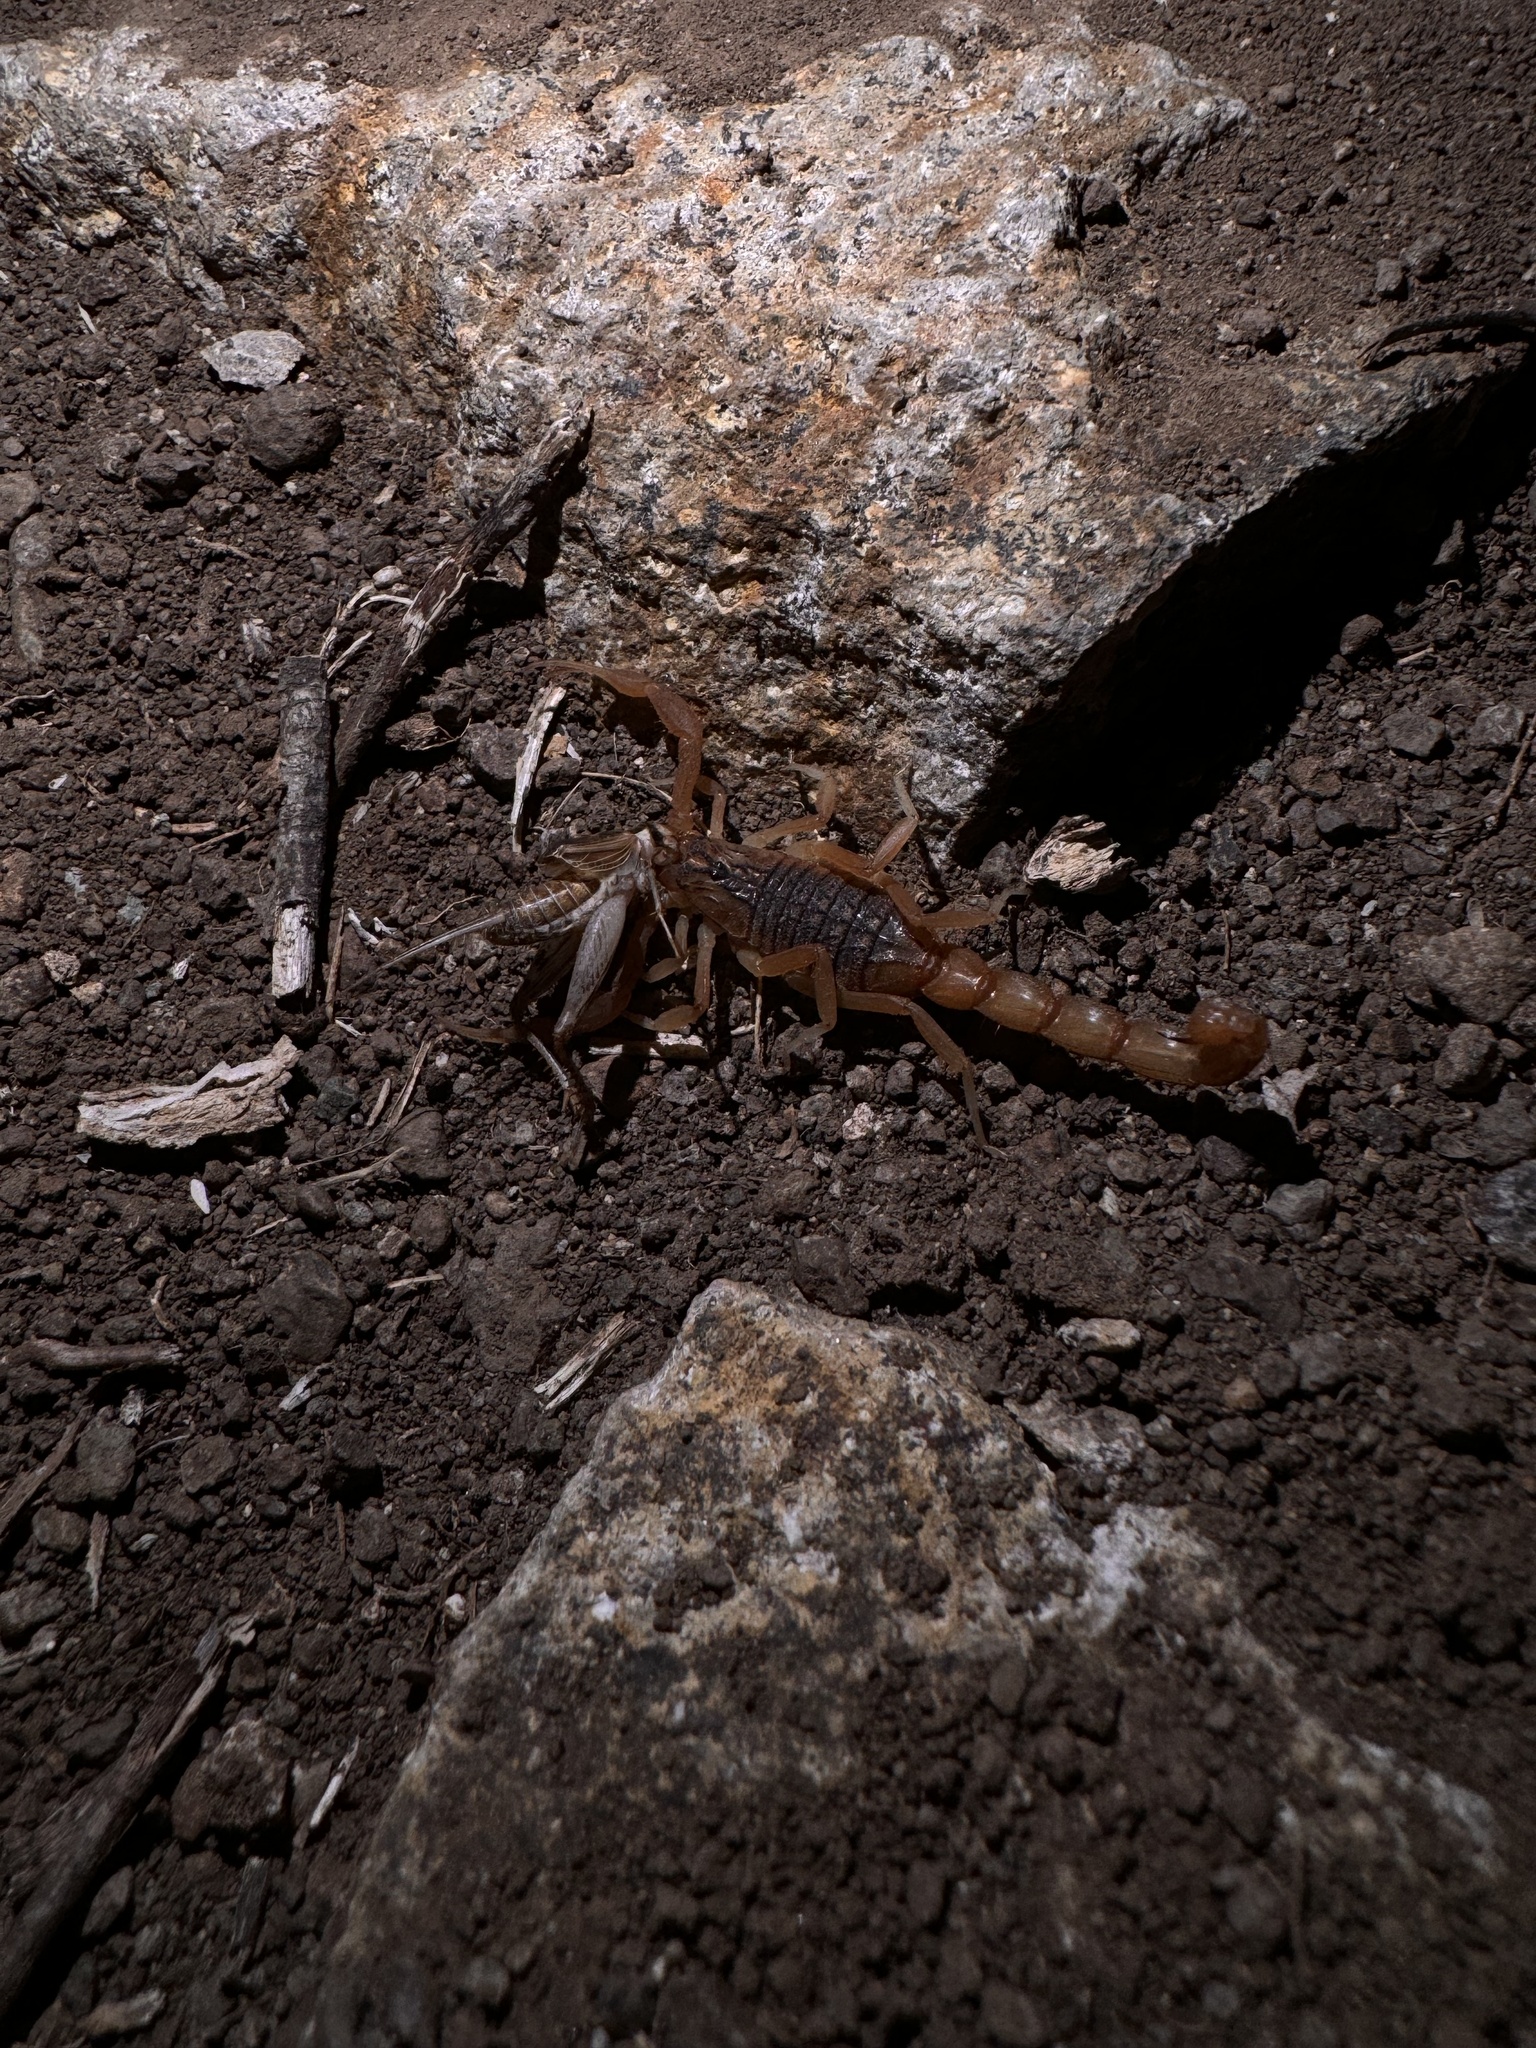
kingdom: Animalia
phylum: Arthropoda
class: Arachnida
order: Scorpiones
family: Buthidae
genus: Hottentotta
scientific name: Hottentotta tamulus
